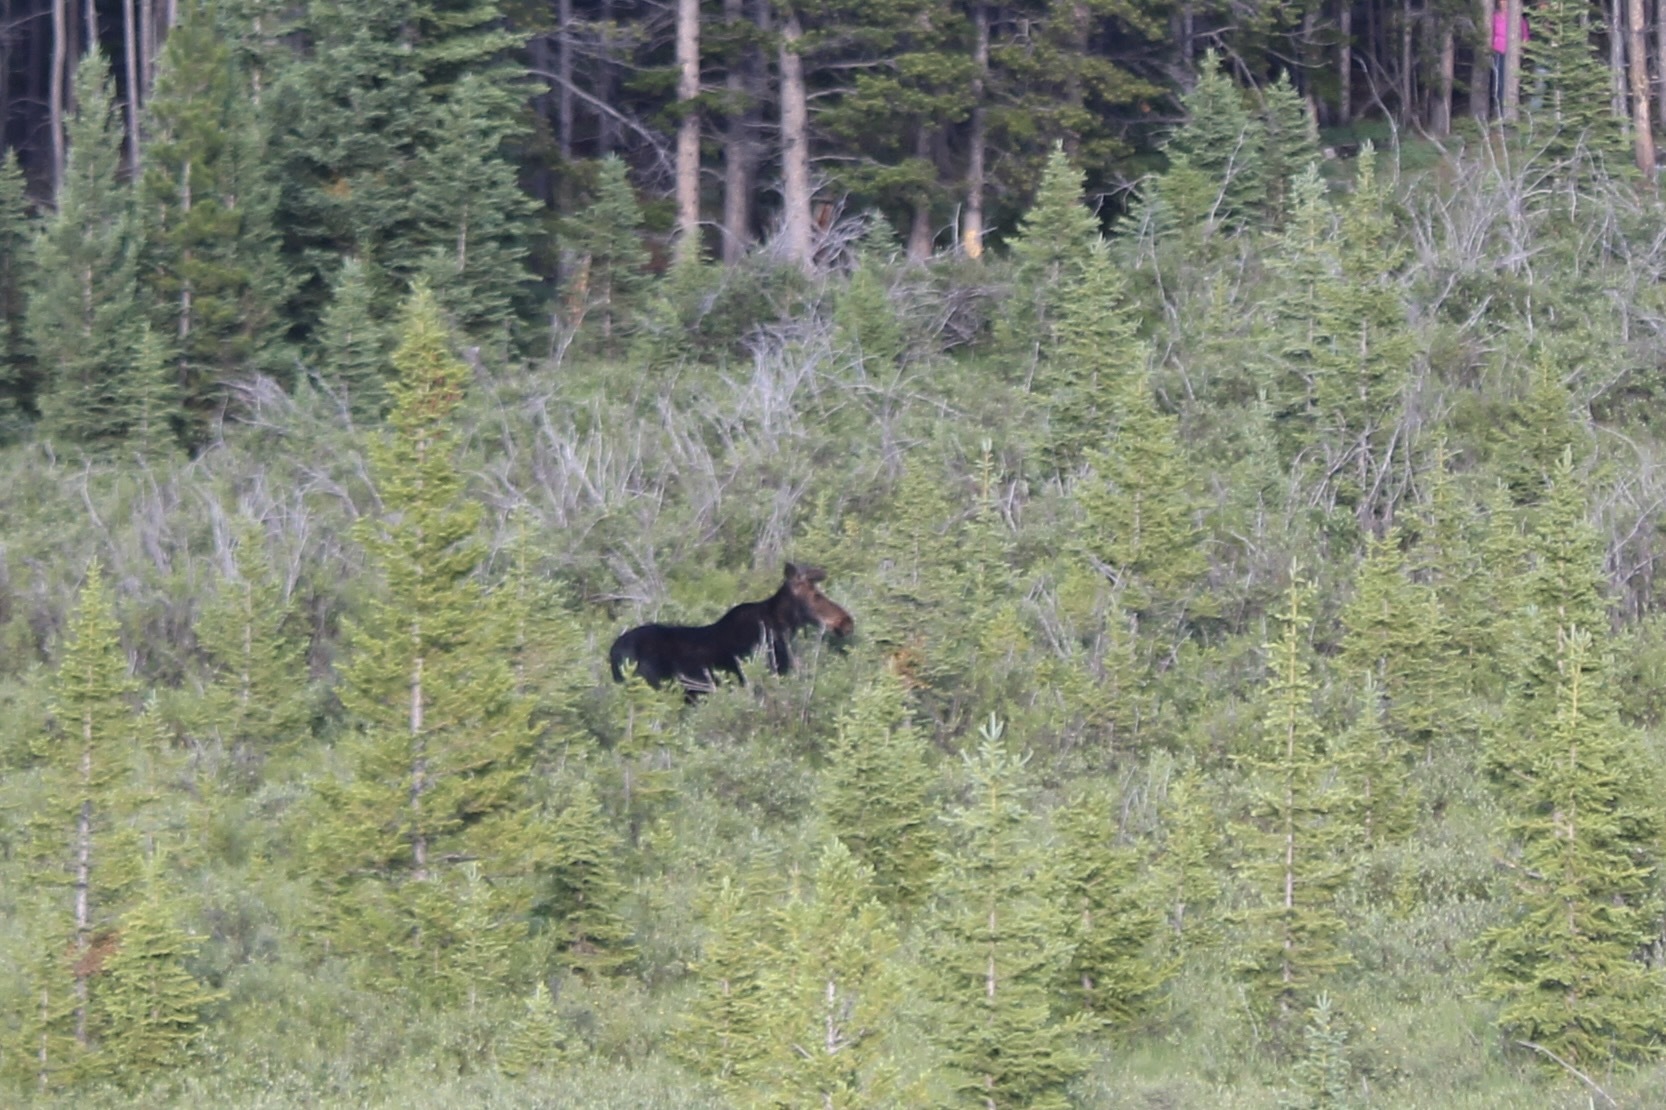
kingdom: Animalia
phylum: Chordata
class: Mammalia
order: Artiodactyla
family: Cervidae
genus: Alces
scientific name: Alces alces
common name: Moose
